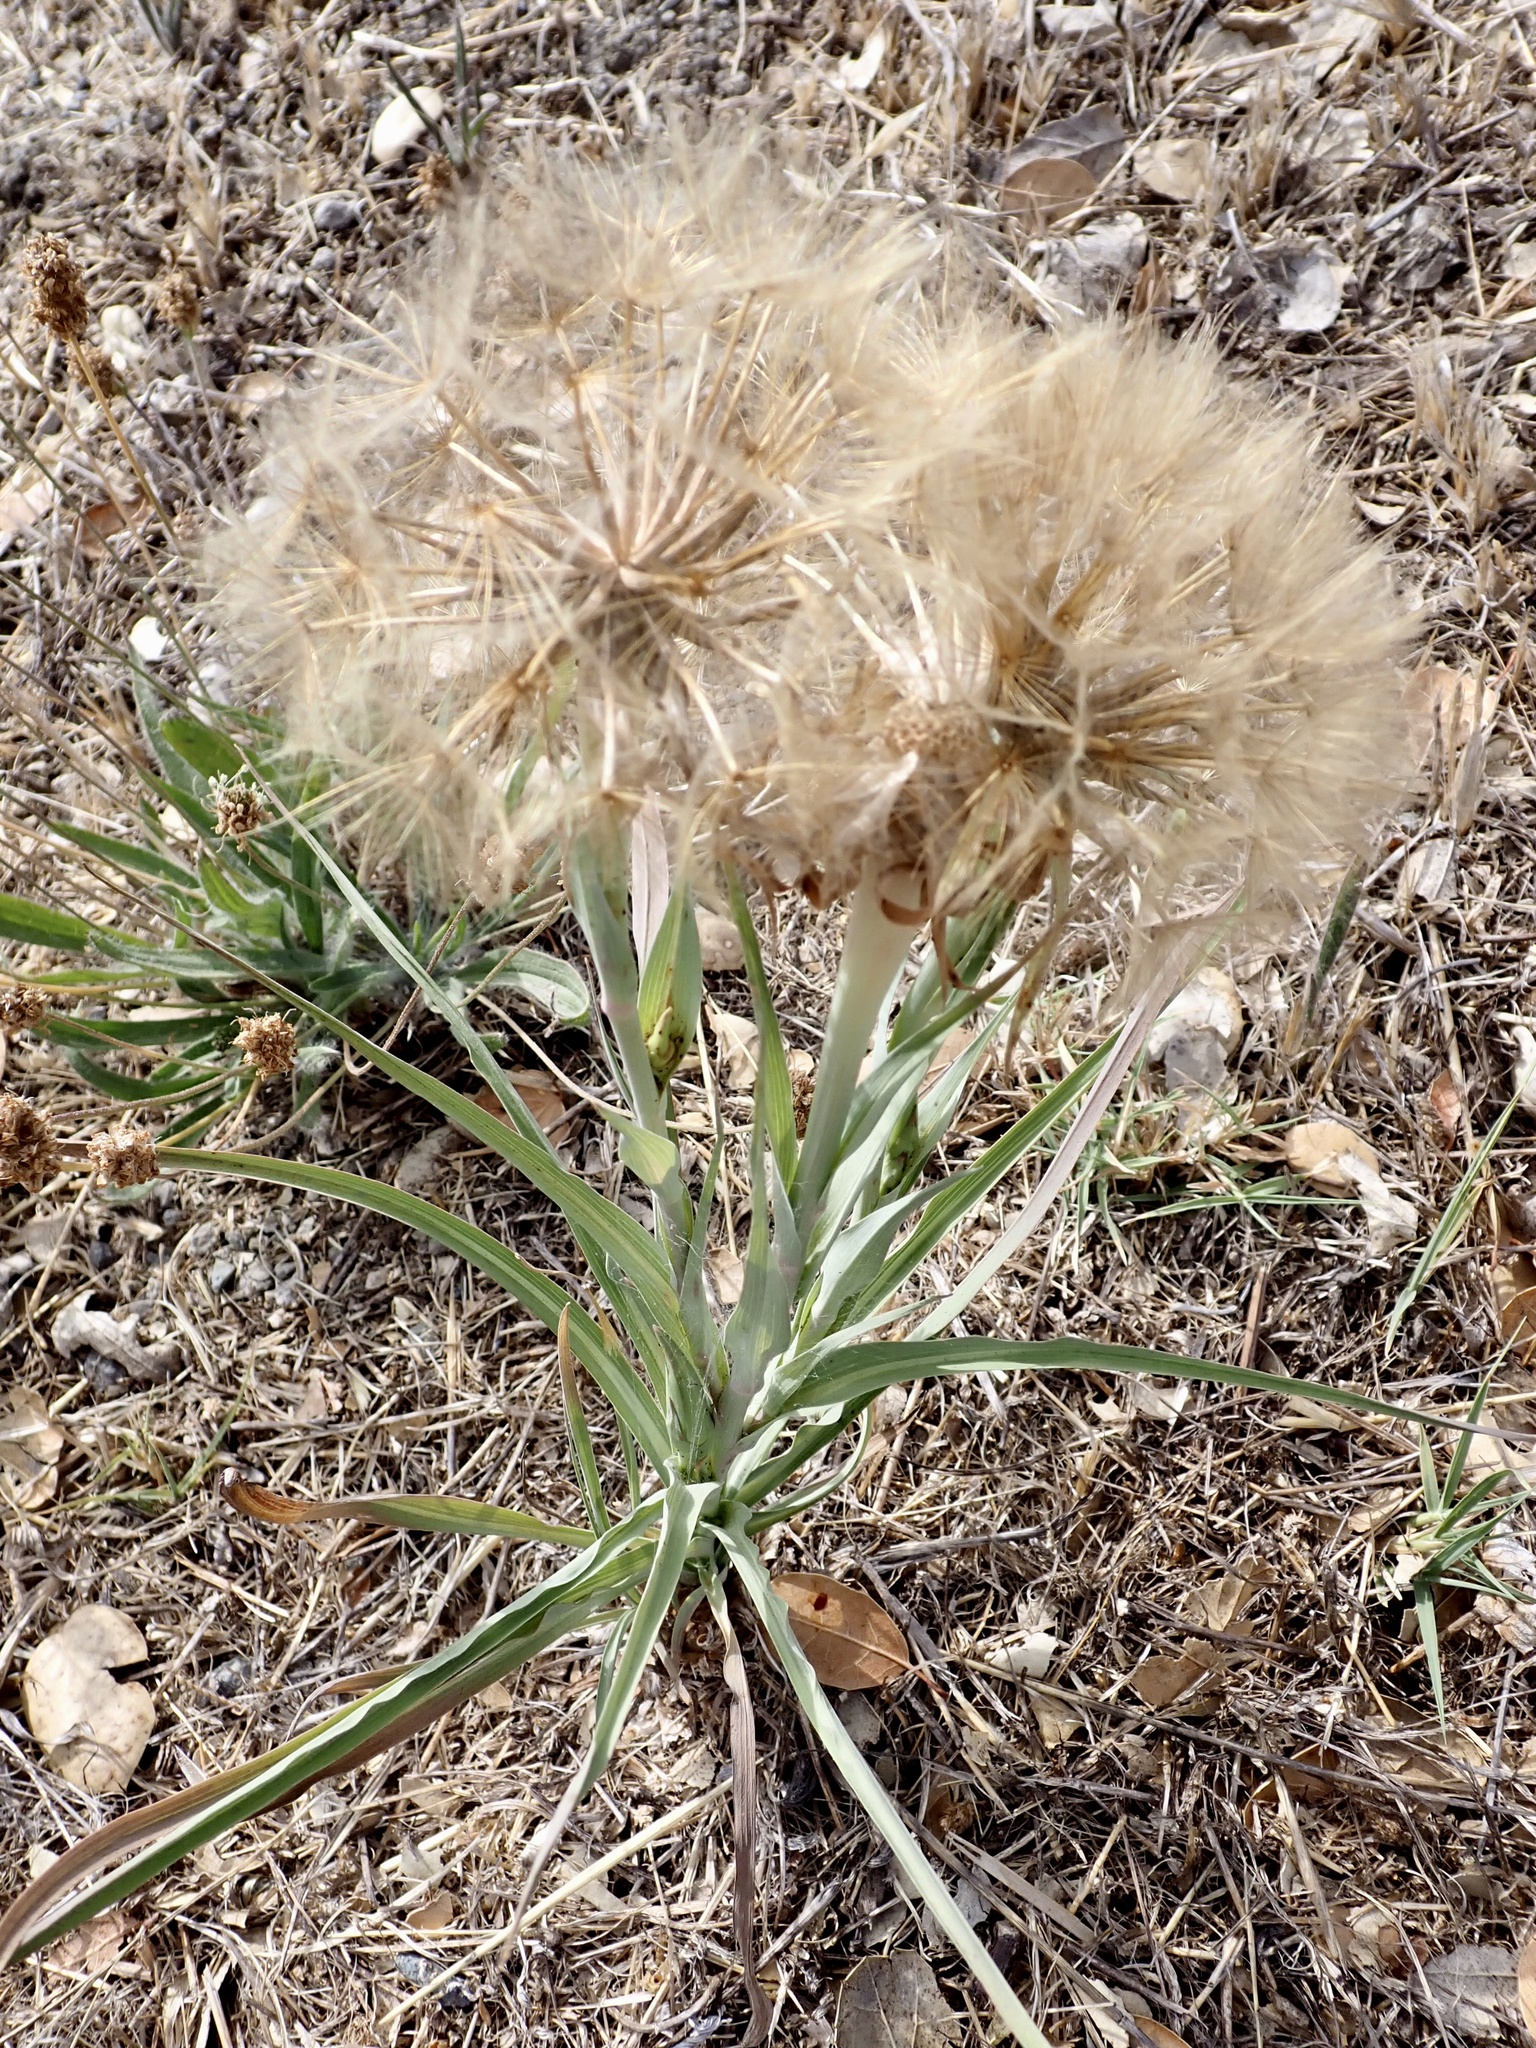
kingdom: Plantae
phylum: Tracheophyta
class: Magnoliopsida
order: Asterales
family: Asteraceae
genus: Tragopogon
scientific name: Tragopogon dubius
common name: Yellow salsify
